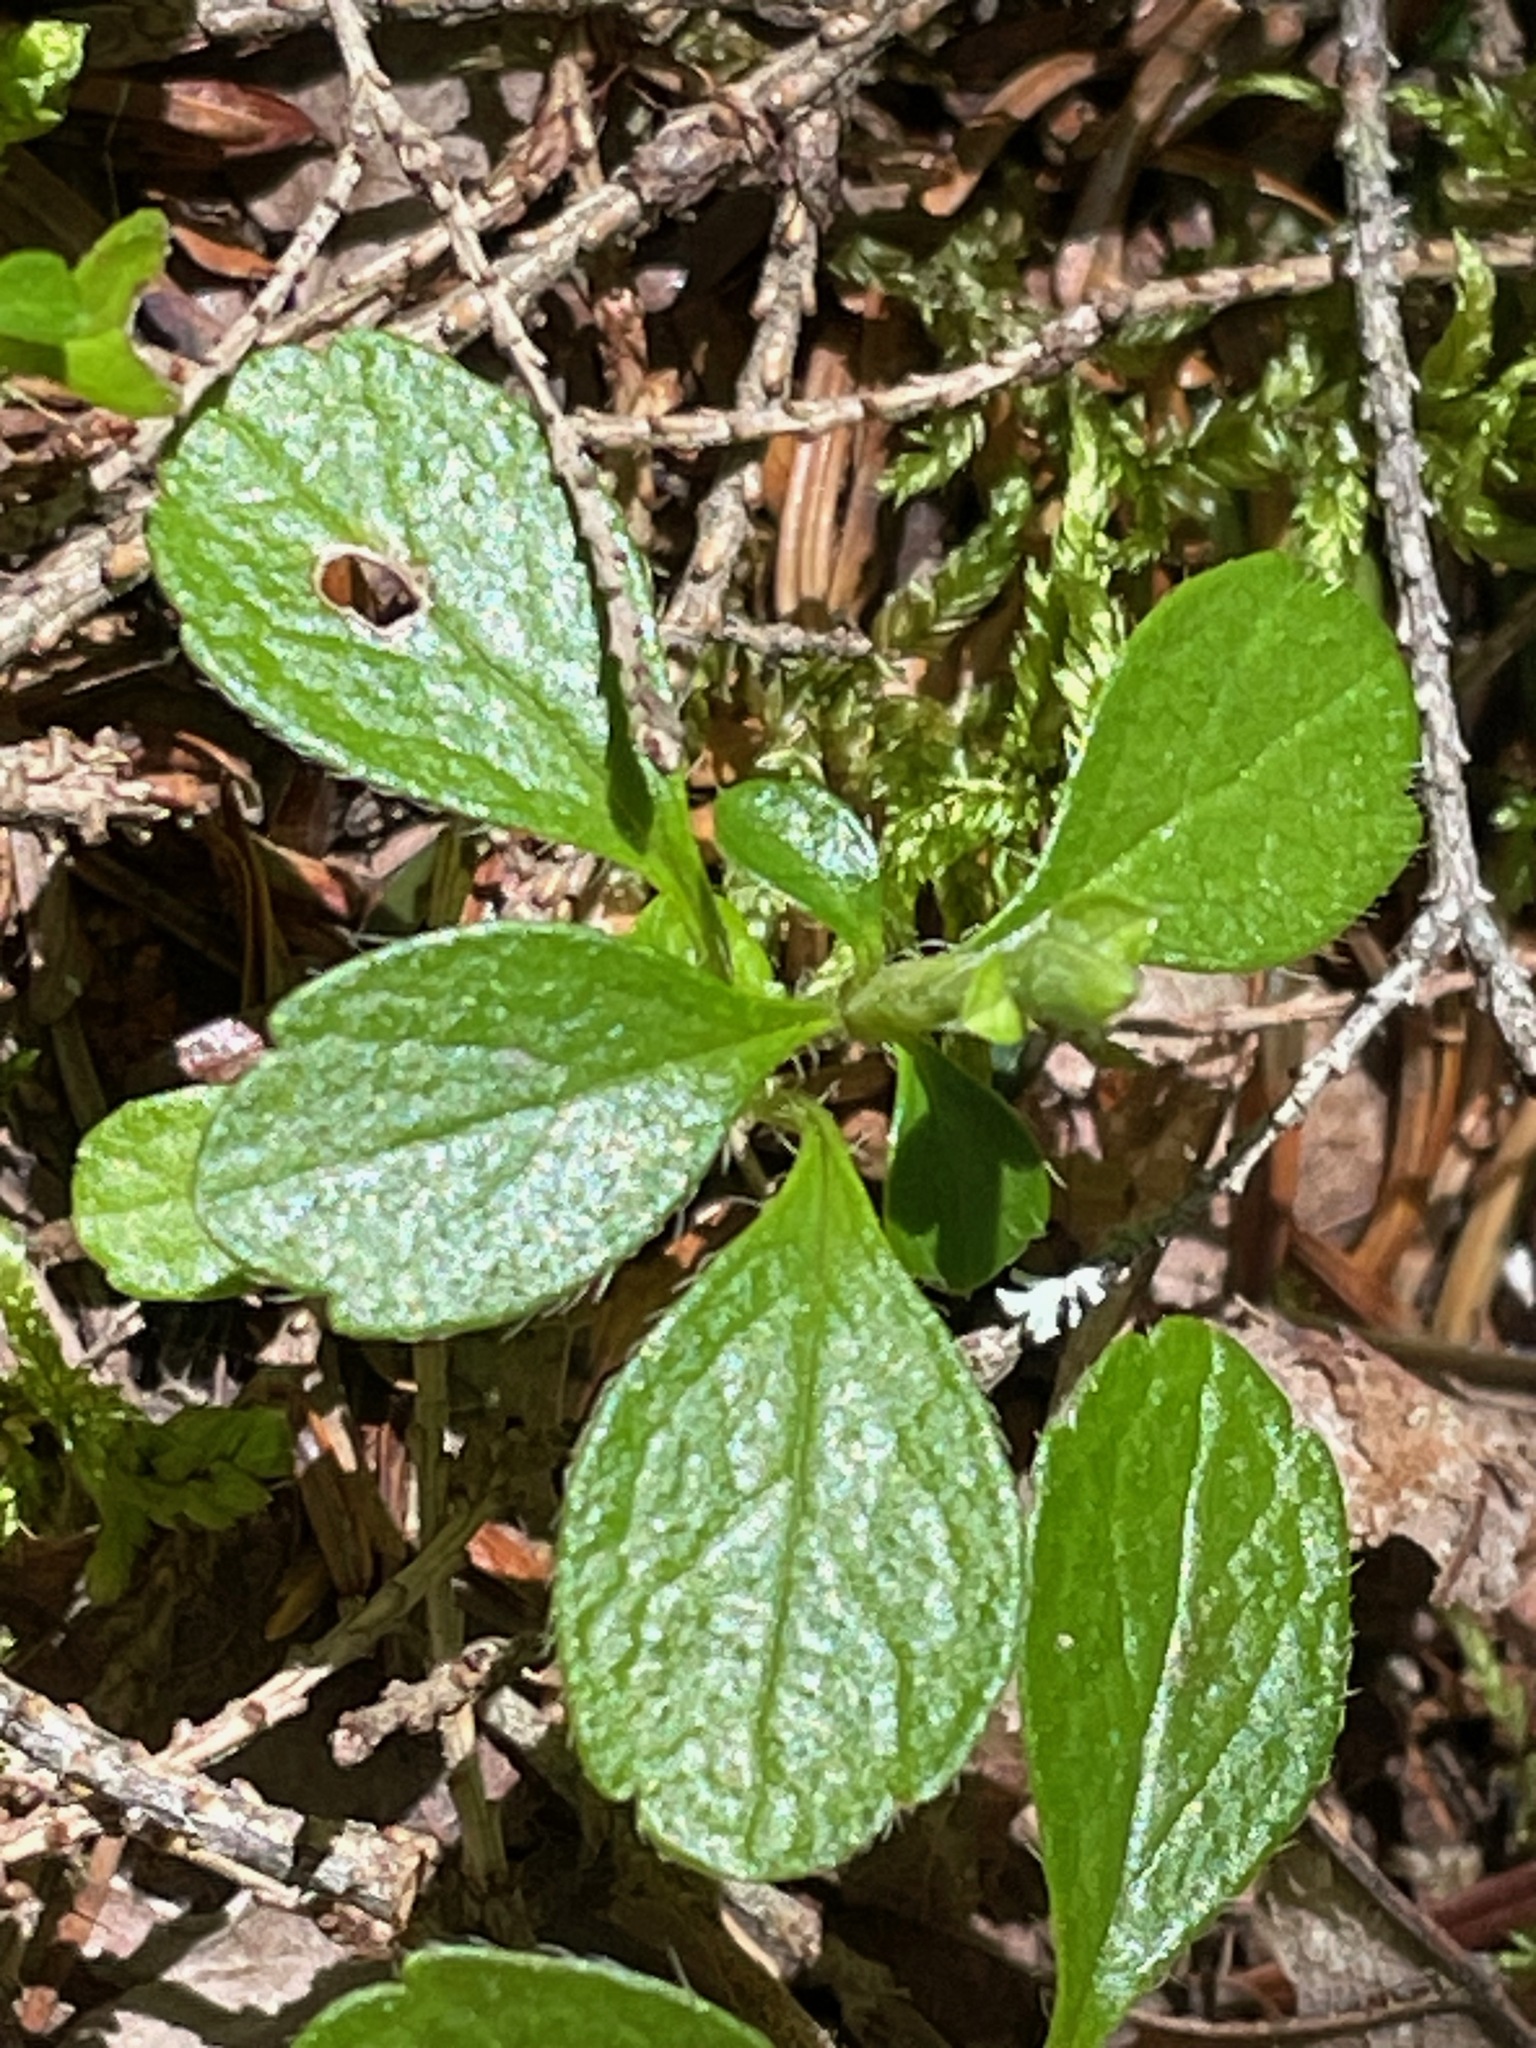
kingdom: Plantae
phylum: Tracheophyta
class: Magnoliopsida
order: Dipsacales
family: Caprifoliaceae
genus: Linnaea
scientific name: Linnaea borealis
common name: Twinflower
